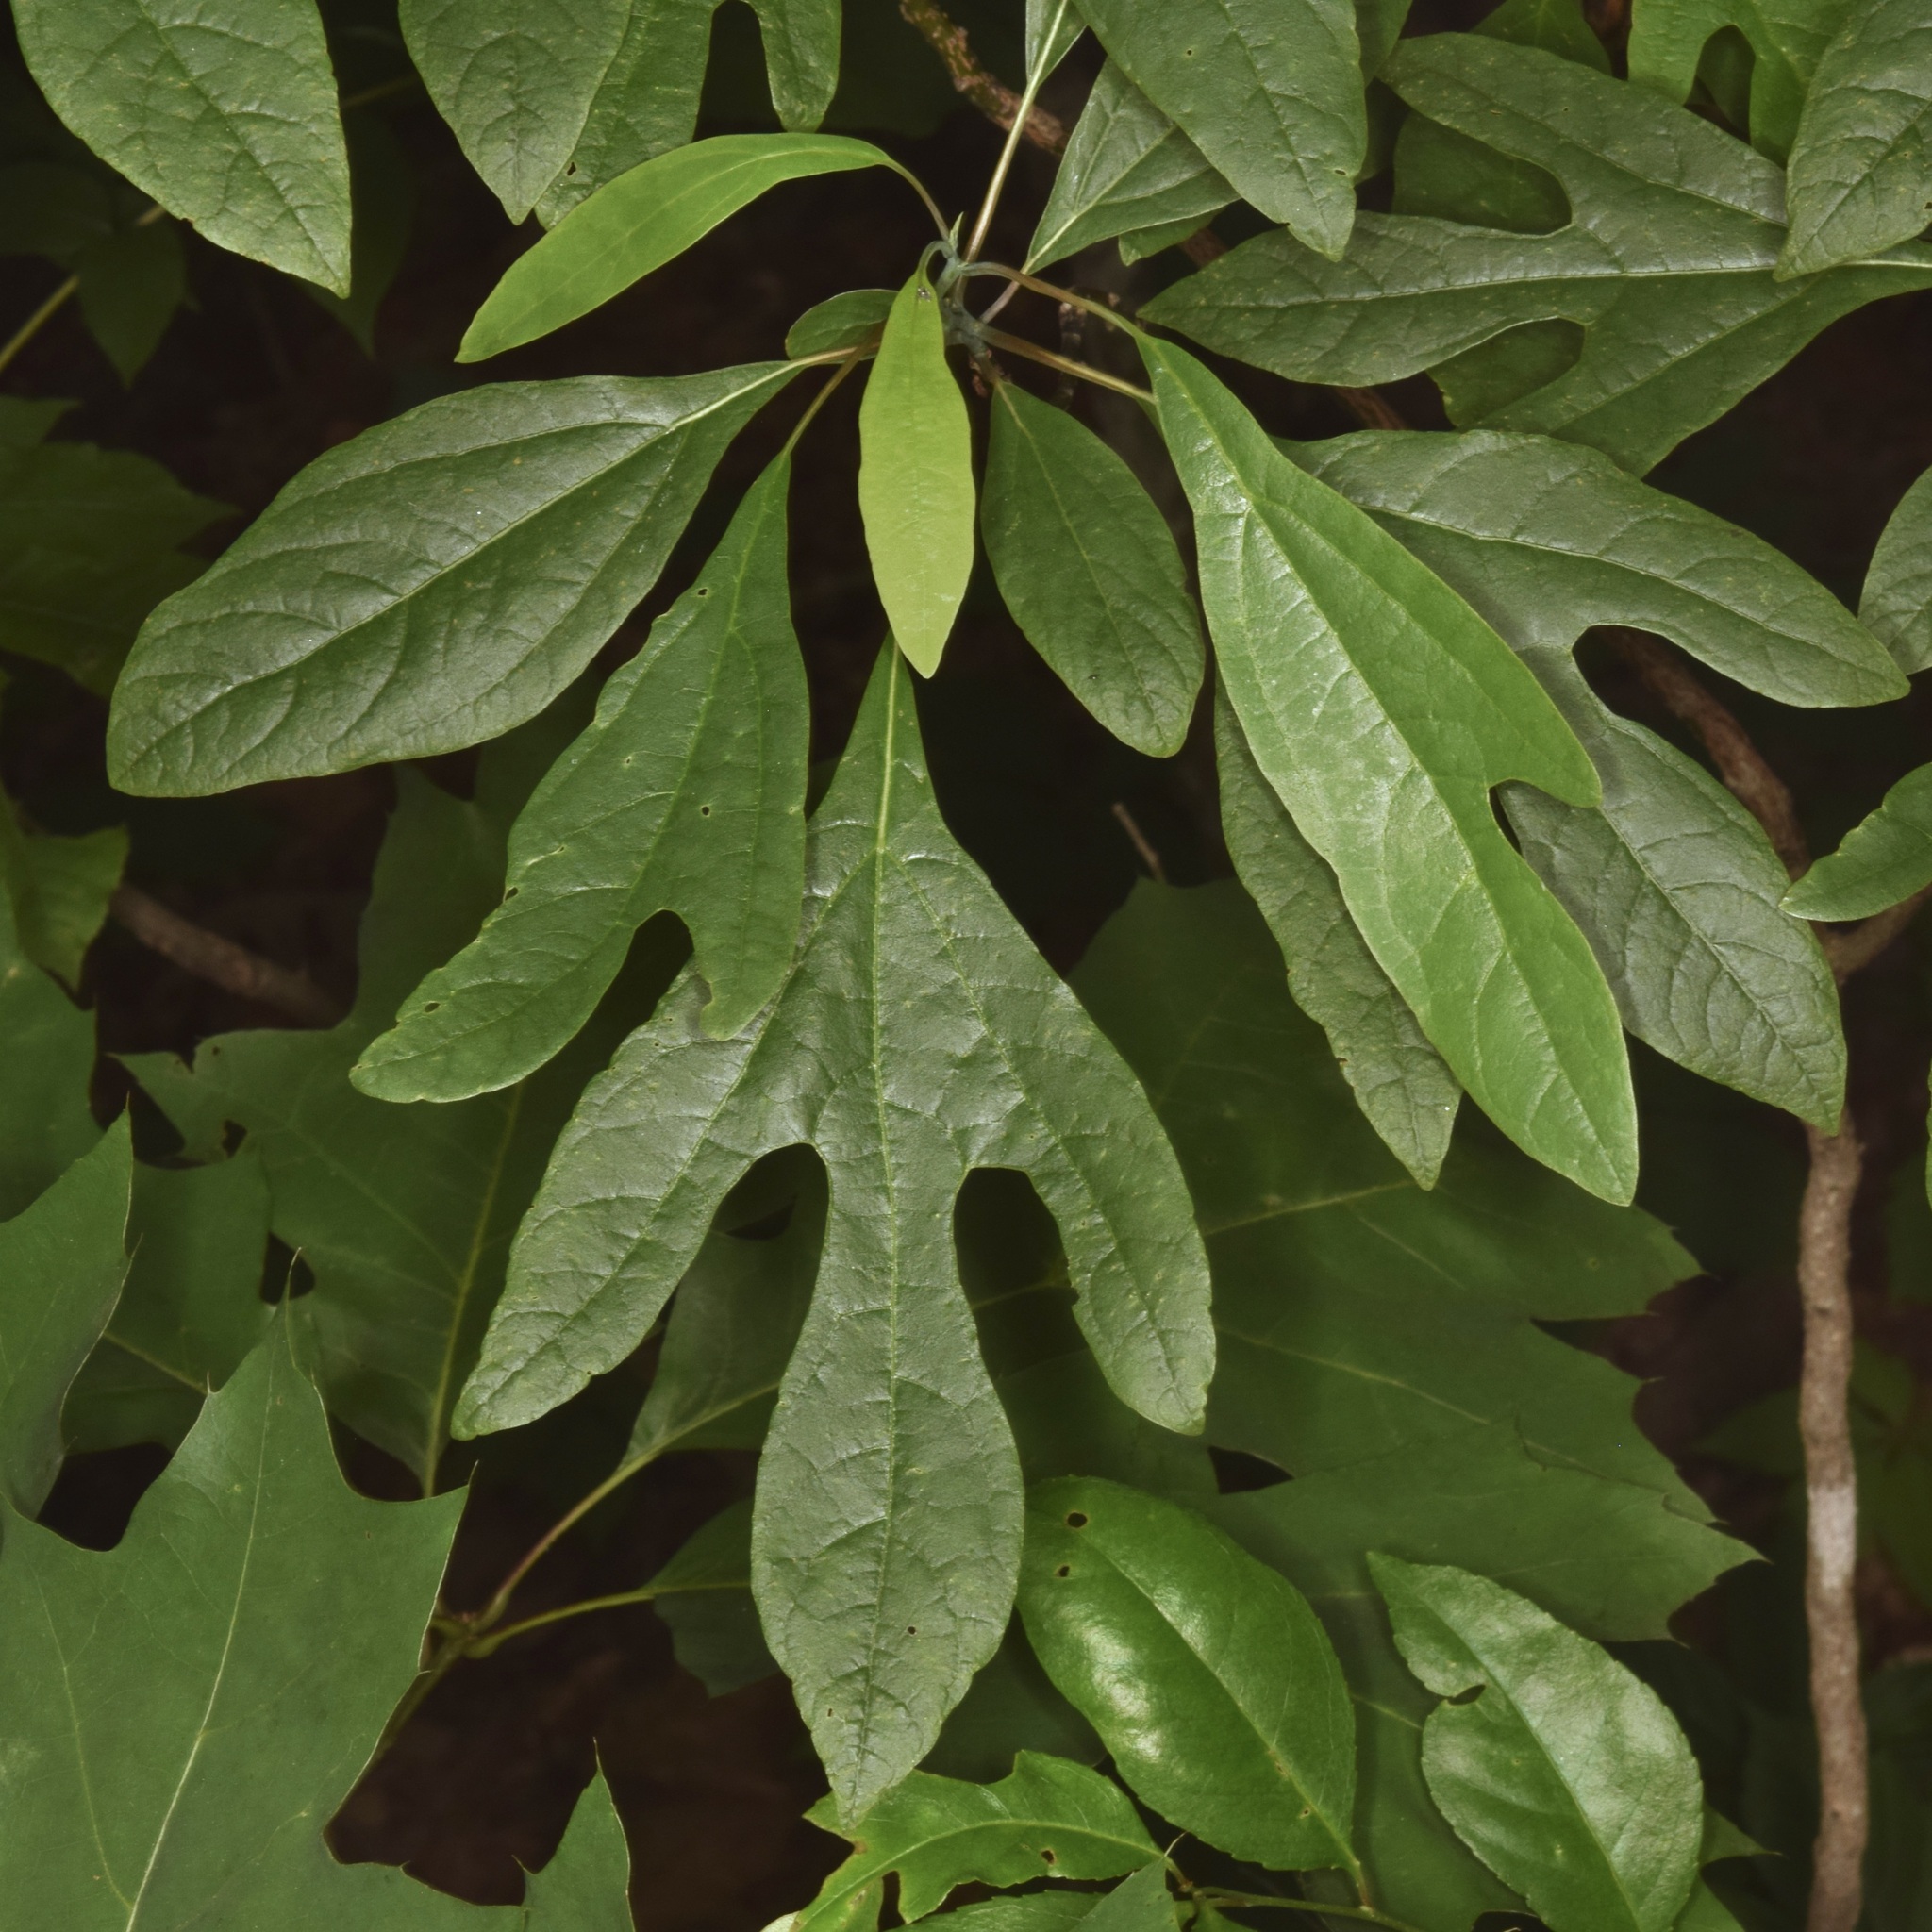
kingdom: Plantae
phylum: Tracheophyta
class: Magnoliopsida
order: Laurales
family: Lauraceae
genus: Sassafras
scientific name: Sassafras albidum
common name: Sassafras
